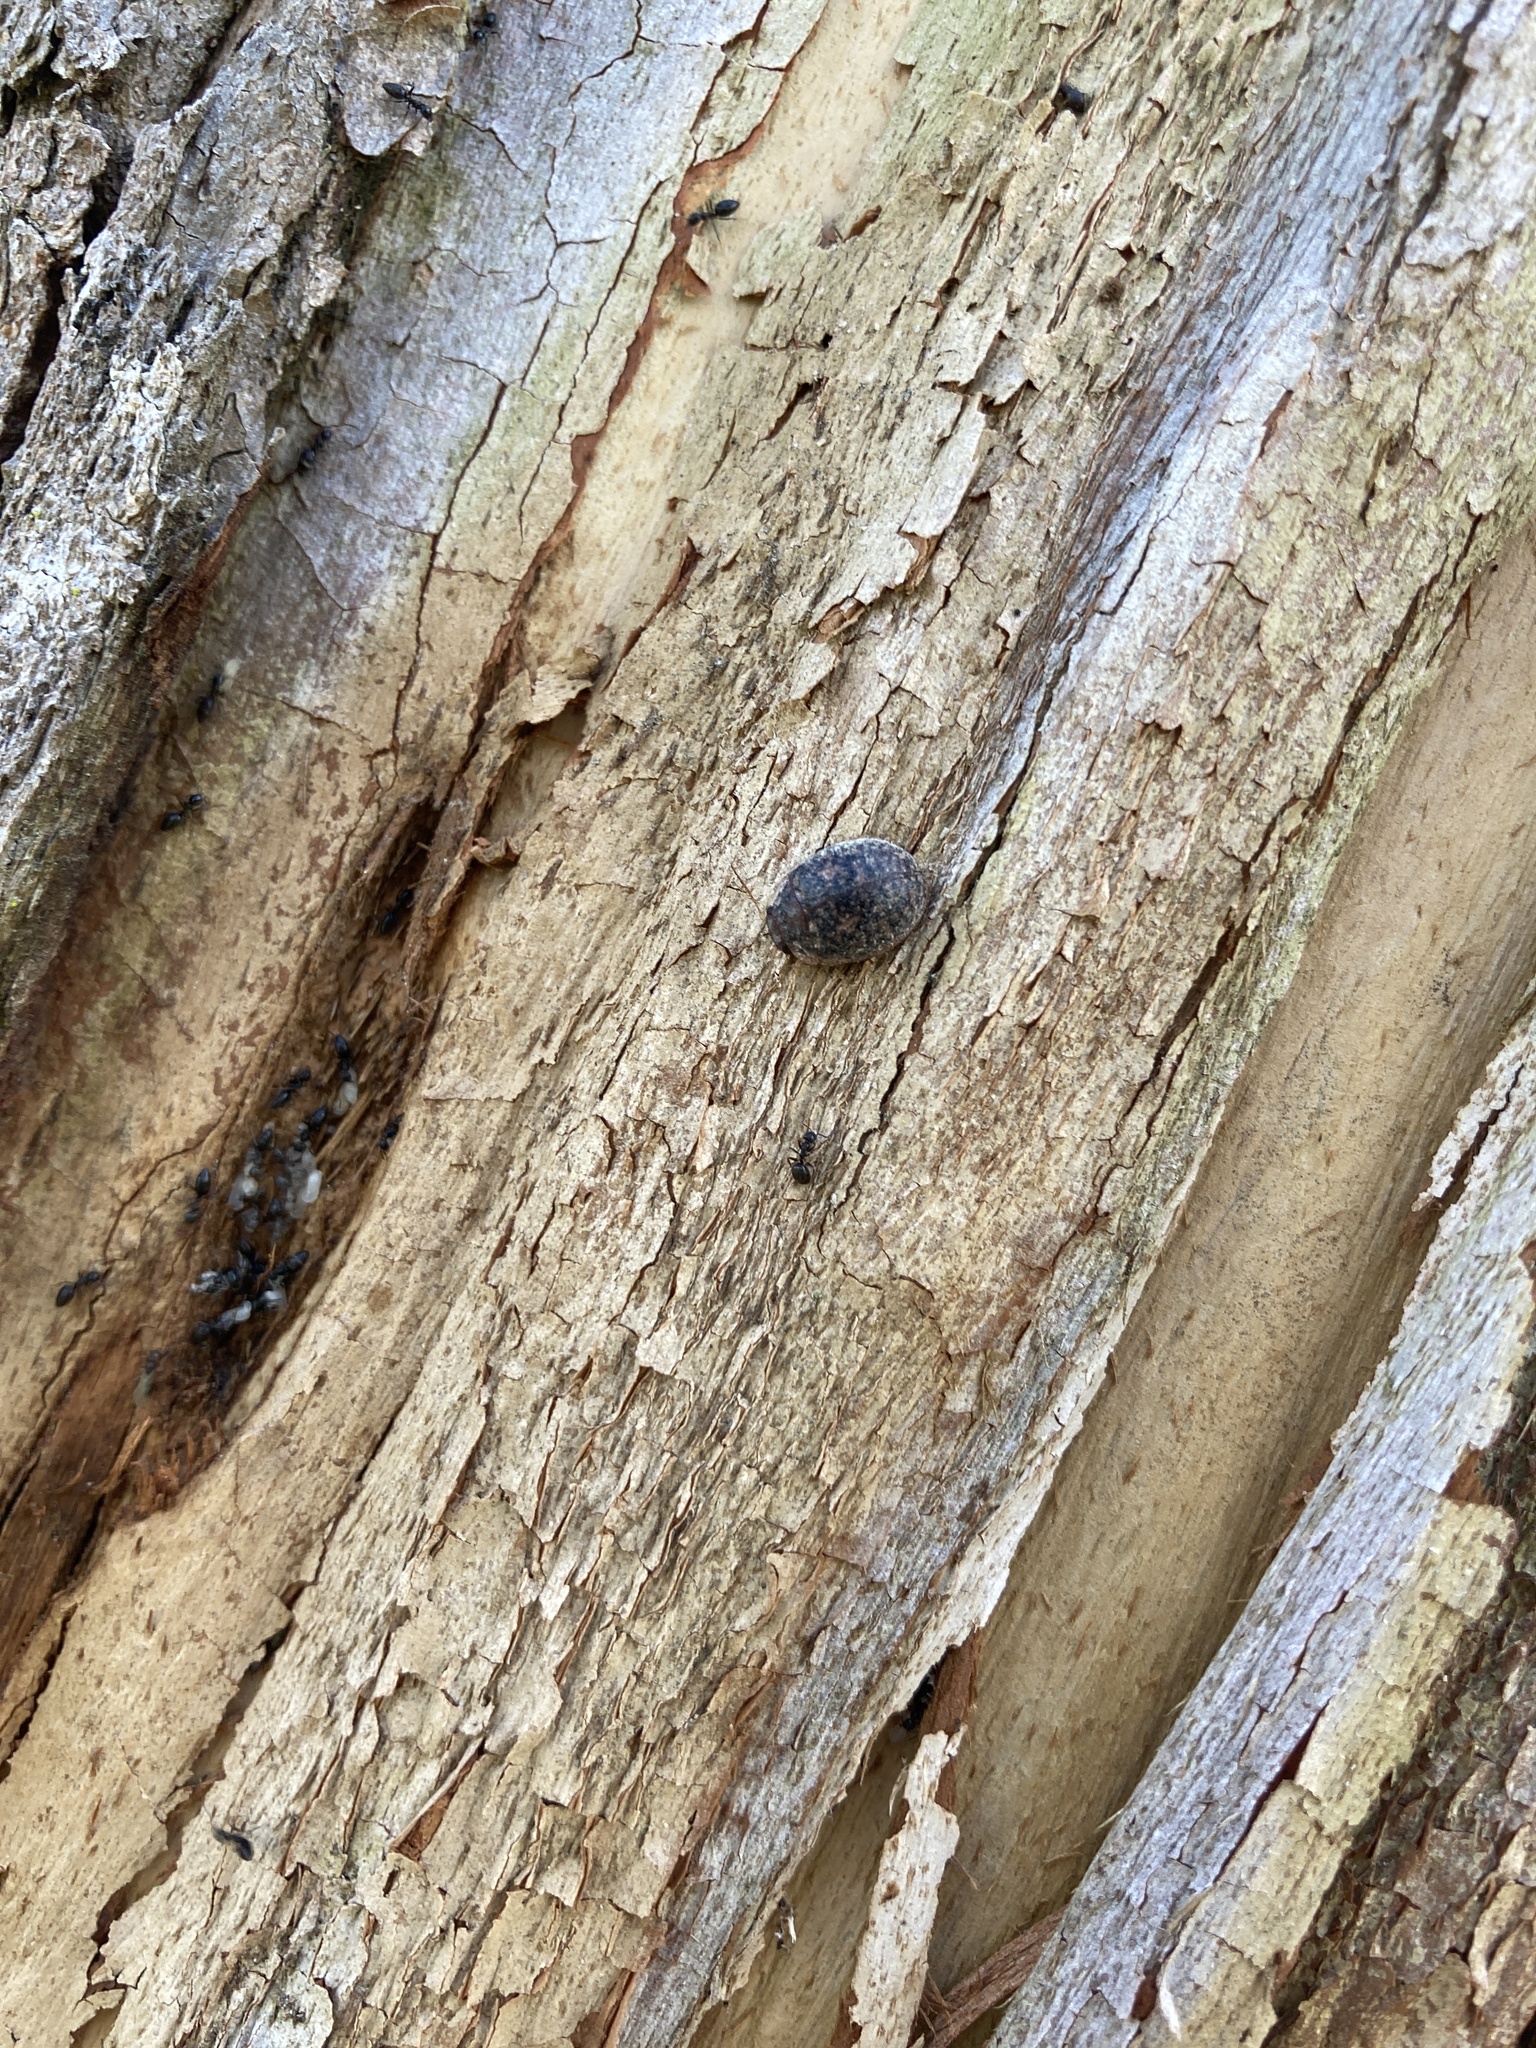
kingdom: Animalia
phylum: Arthropoda
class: Insecta
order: Coleoptera
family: Chrysomelidae
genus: Trachymela
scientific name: Trachymela sloanei
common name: Australian tortoise beetle
